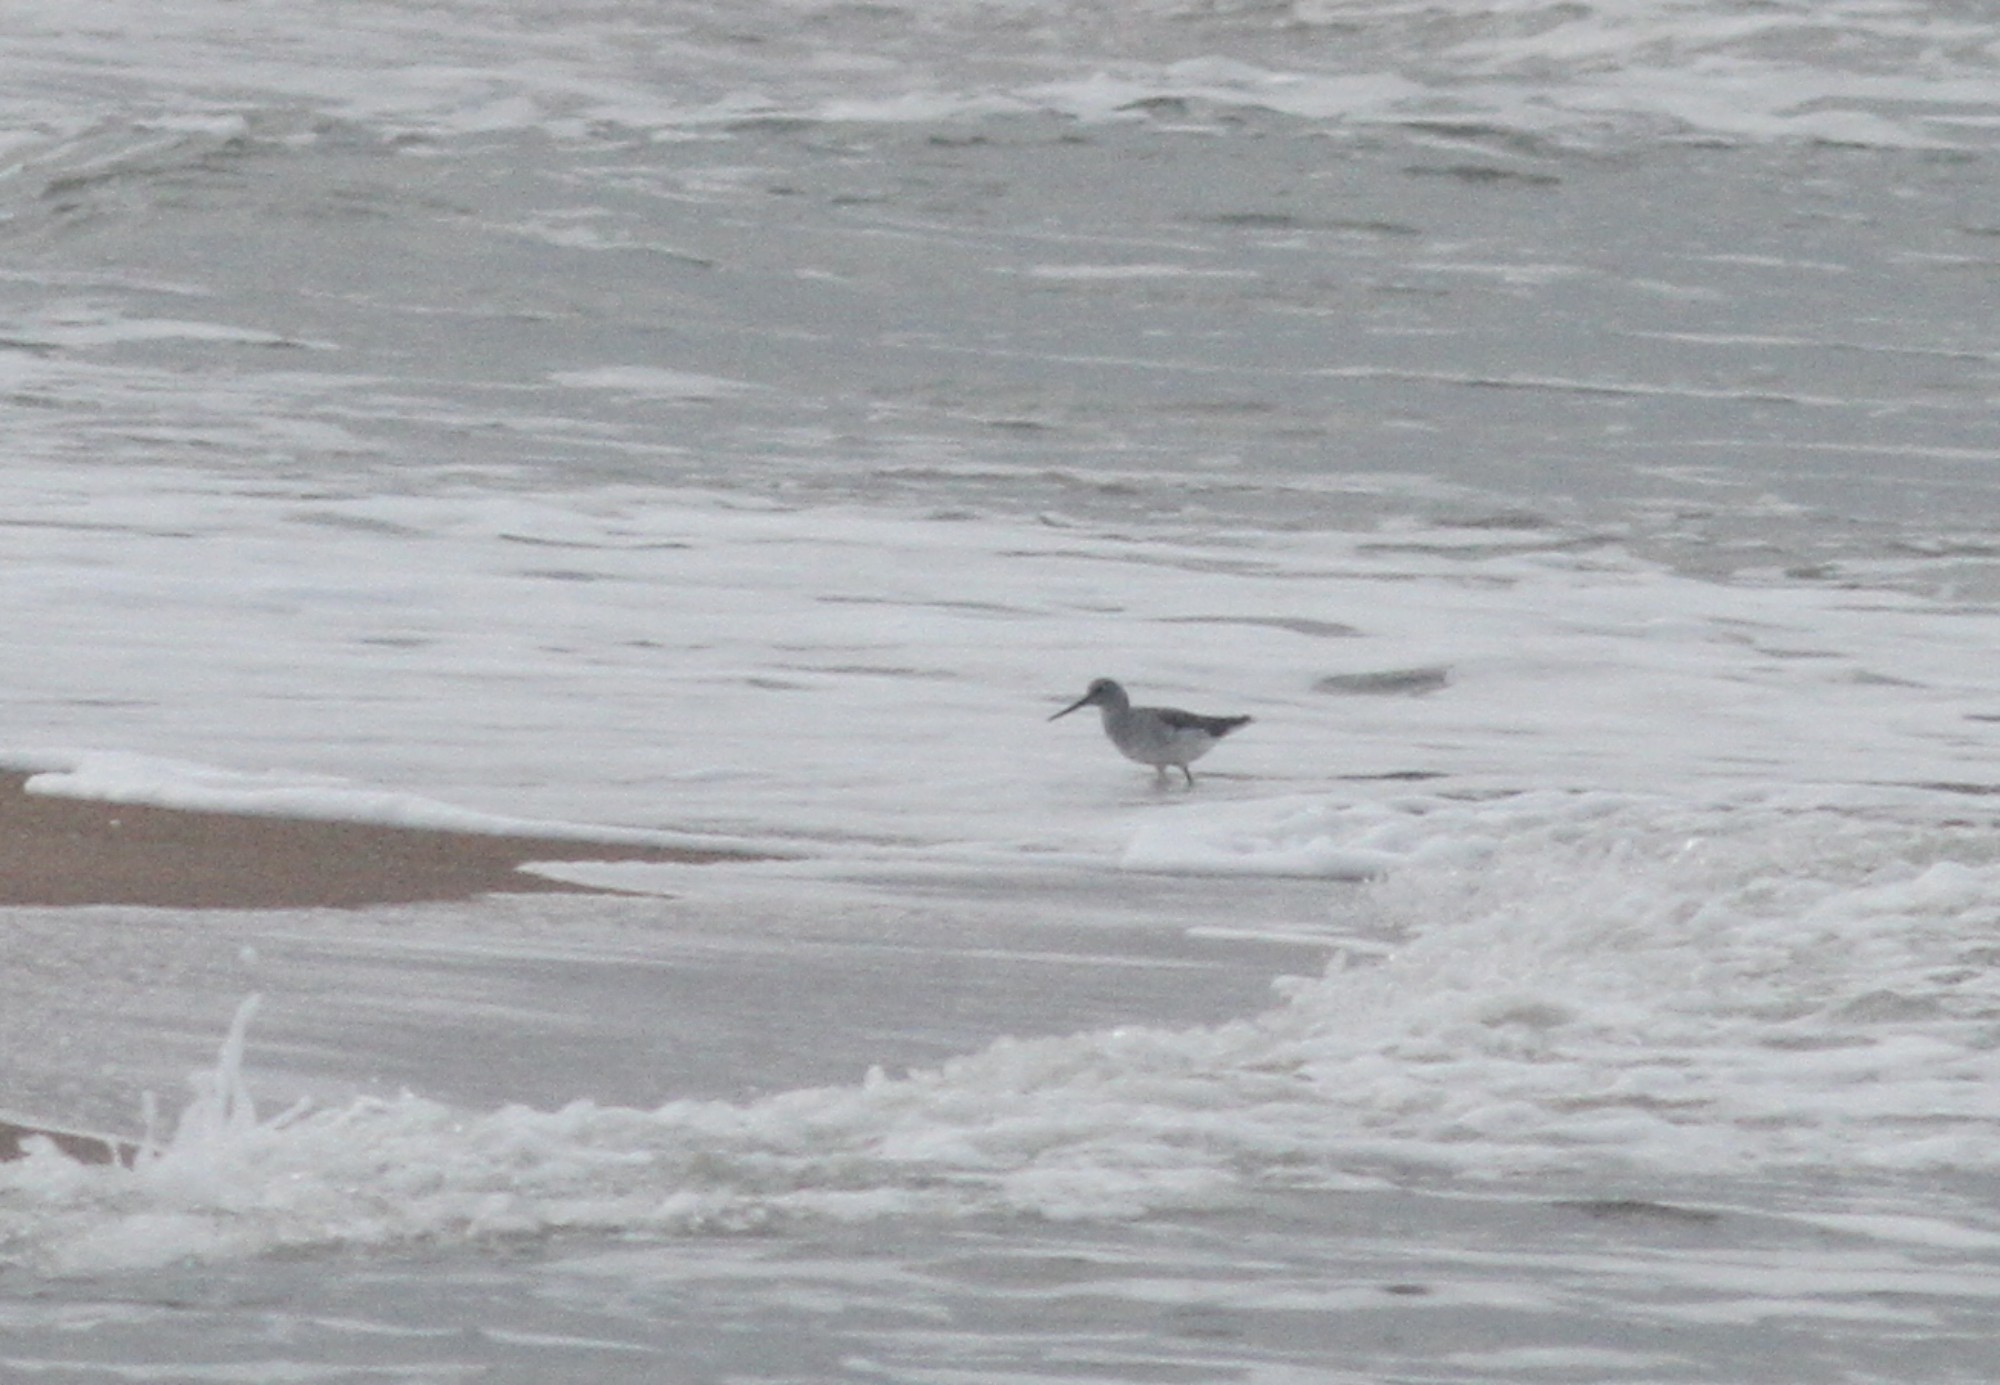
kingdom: Animalia
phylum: Chordata
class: Aves
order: Charadriiformes
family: Scolopacidae
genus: Tringa
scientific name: Tringa nebularia
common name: Common greenshank
